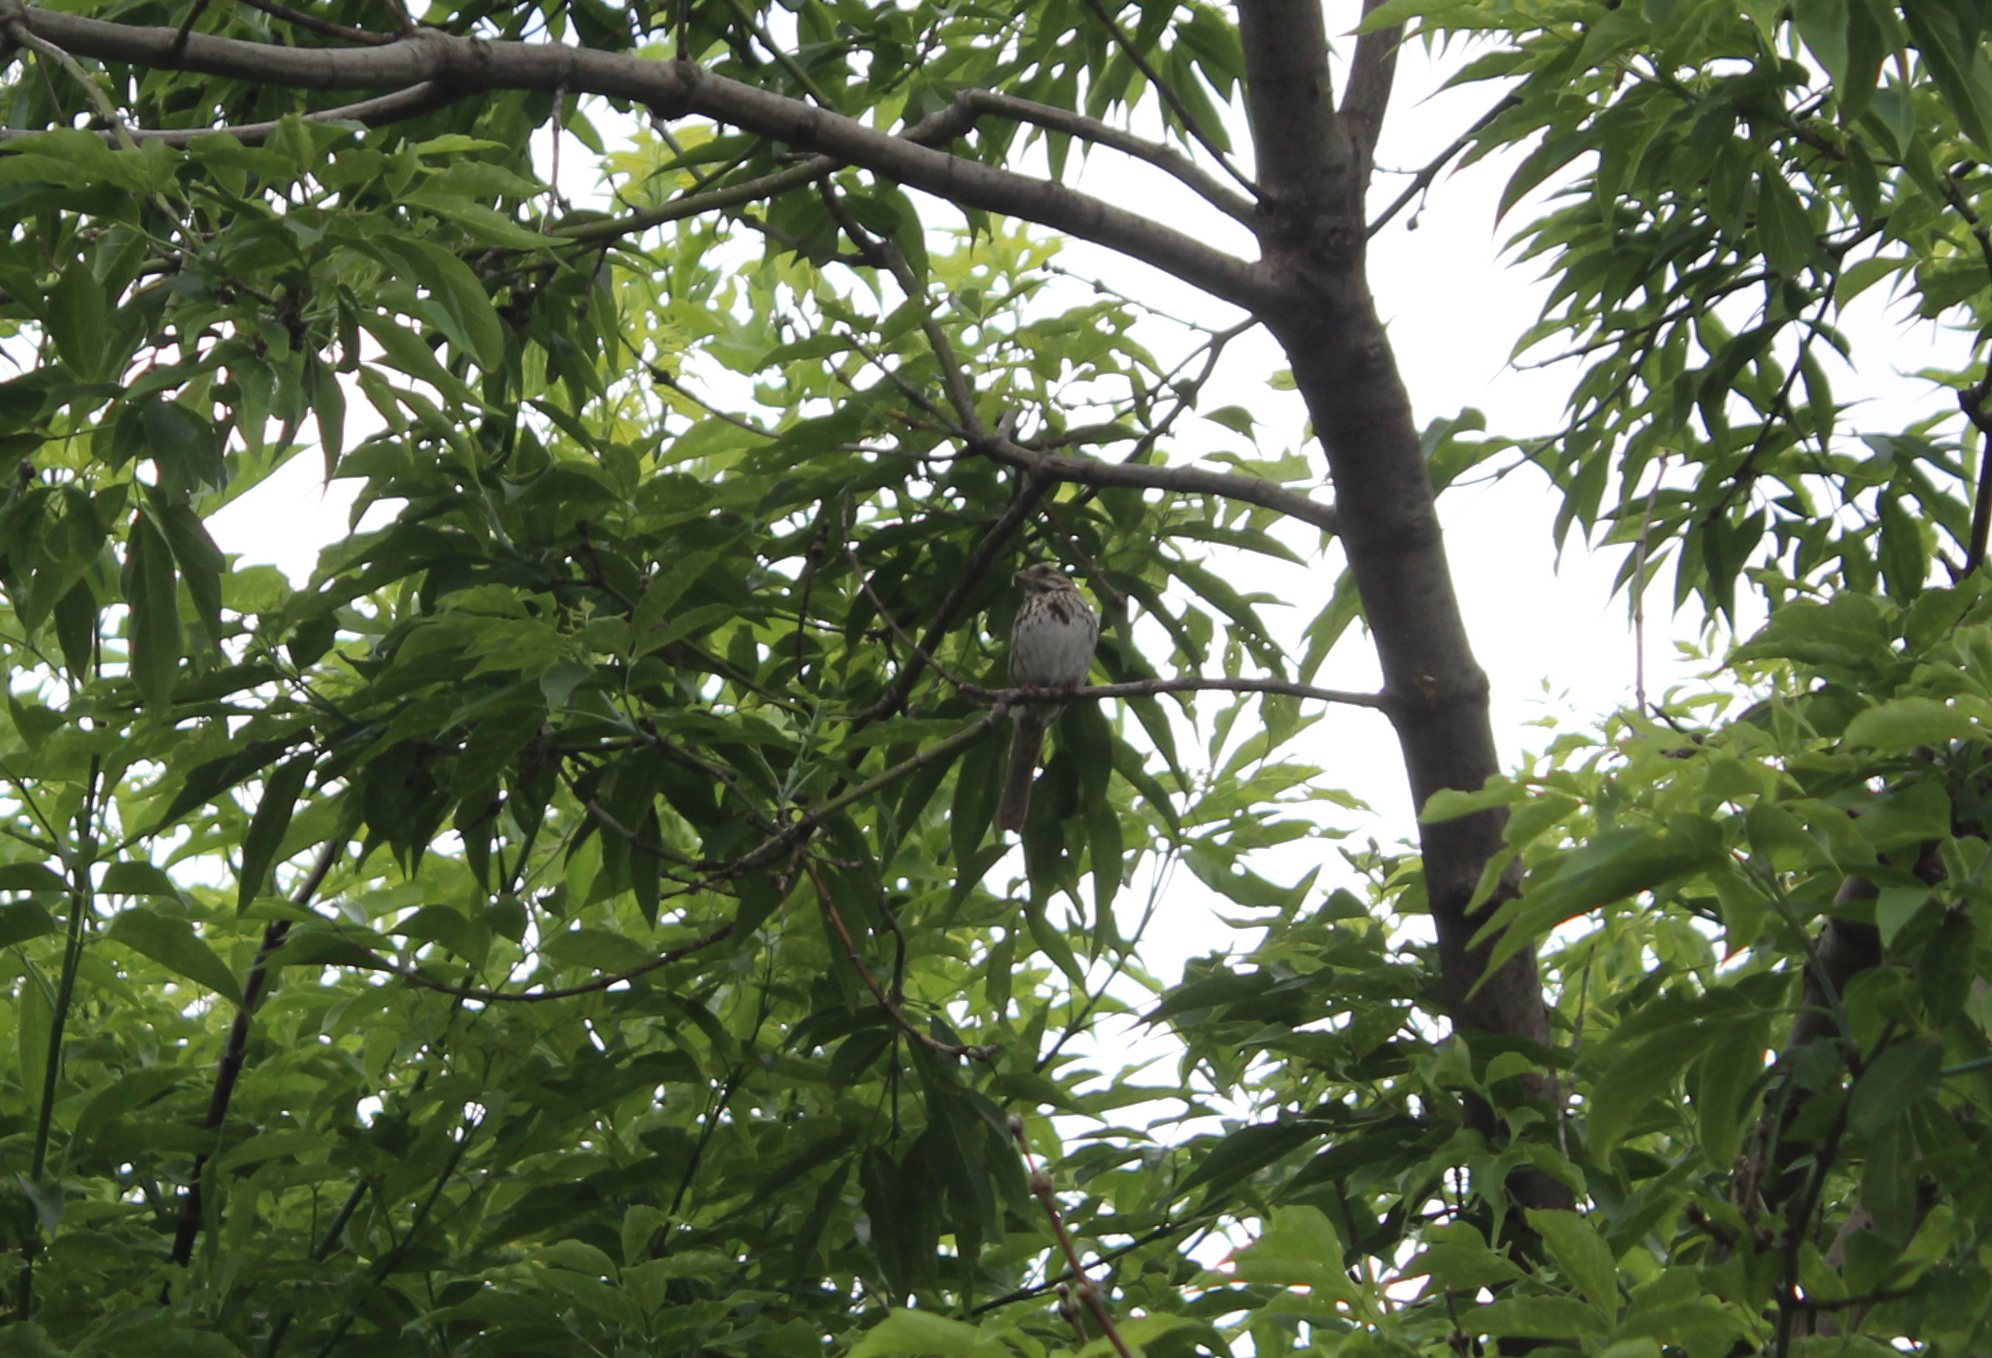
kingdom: Animalia
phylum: Chordata
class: Aves
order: Passeriformes
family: Passerellidae
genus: Melospiza
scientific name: Melospiza melodia
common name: Song sparrow
